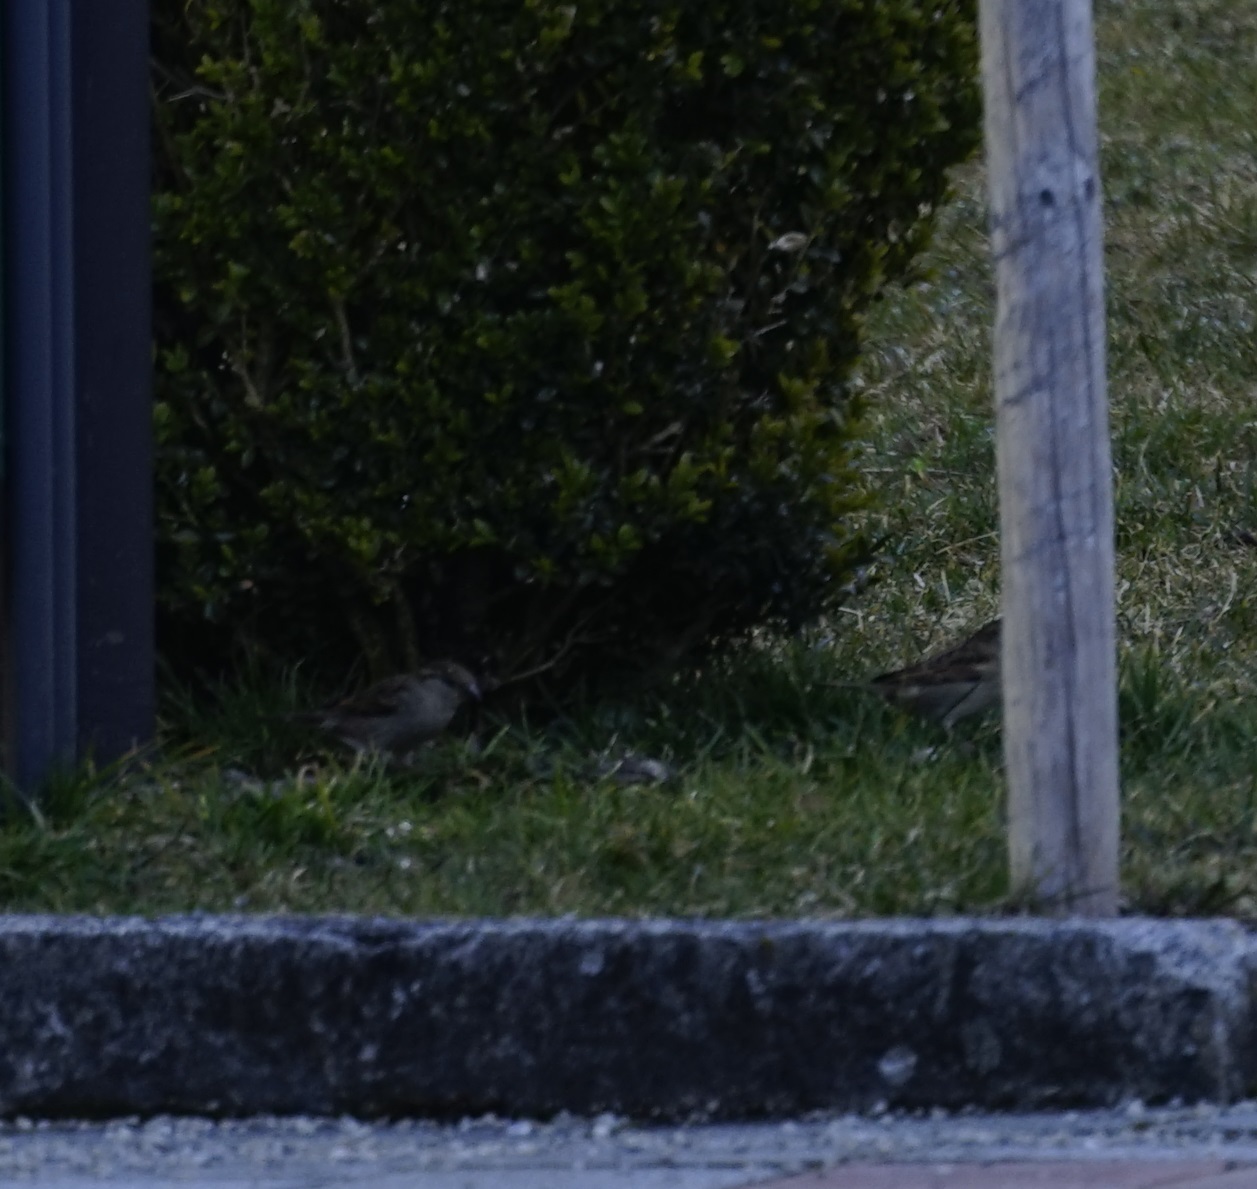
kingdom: Animalia
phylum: Chordata
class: Aves
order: Passeriformes
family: Passeridae
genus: Passer
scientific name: Passer domesticus
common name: House sparrow
